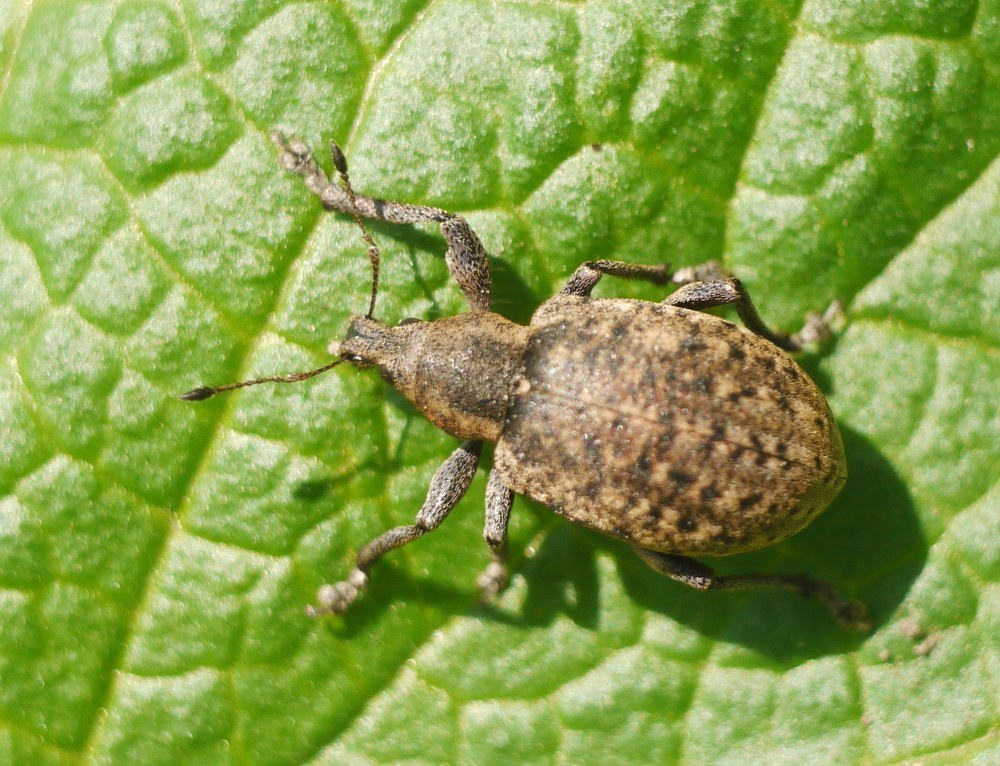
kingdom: Animalia
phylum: Arthropoda
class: Insecta
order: Coleoptera
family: Curculionidae
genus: Liophloeus
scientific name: Liophloeus tessulatus
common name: Weevil
